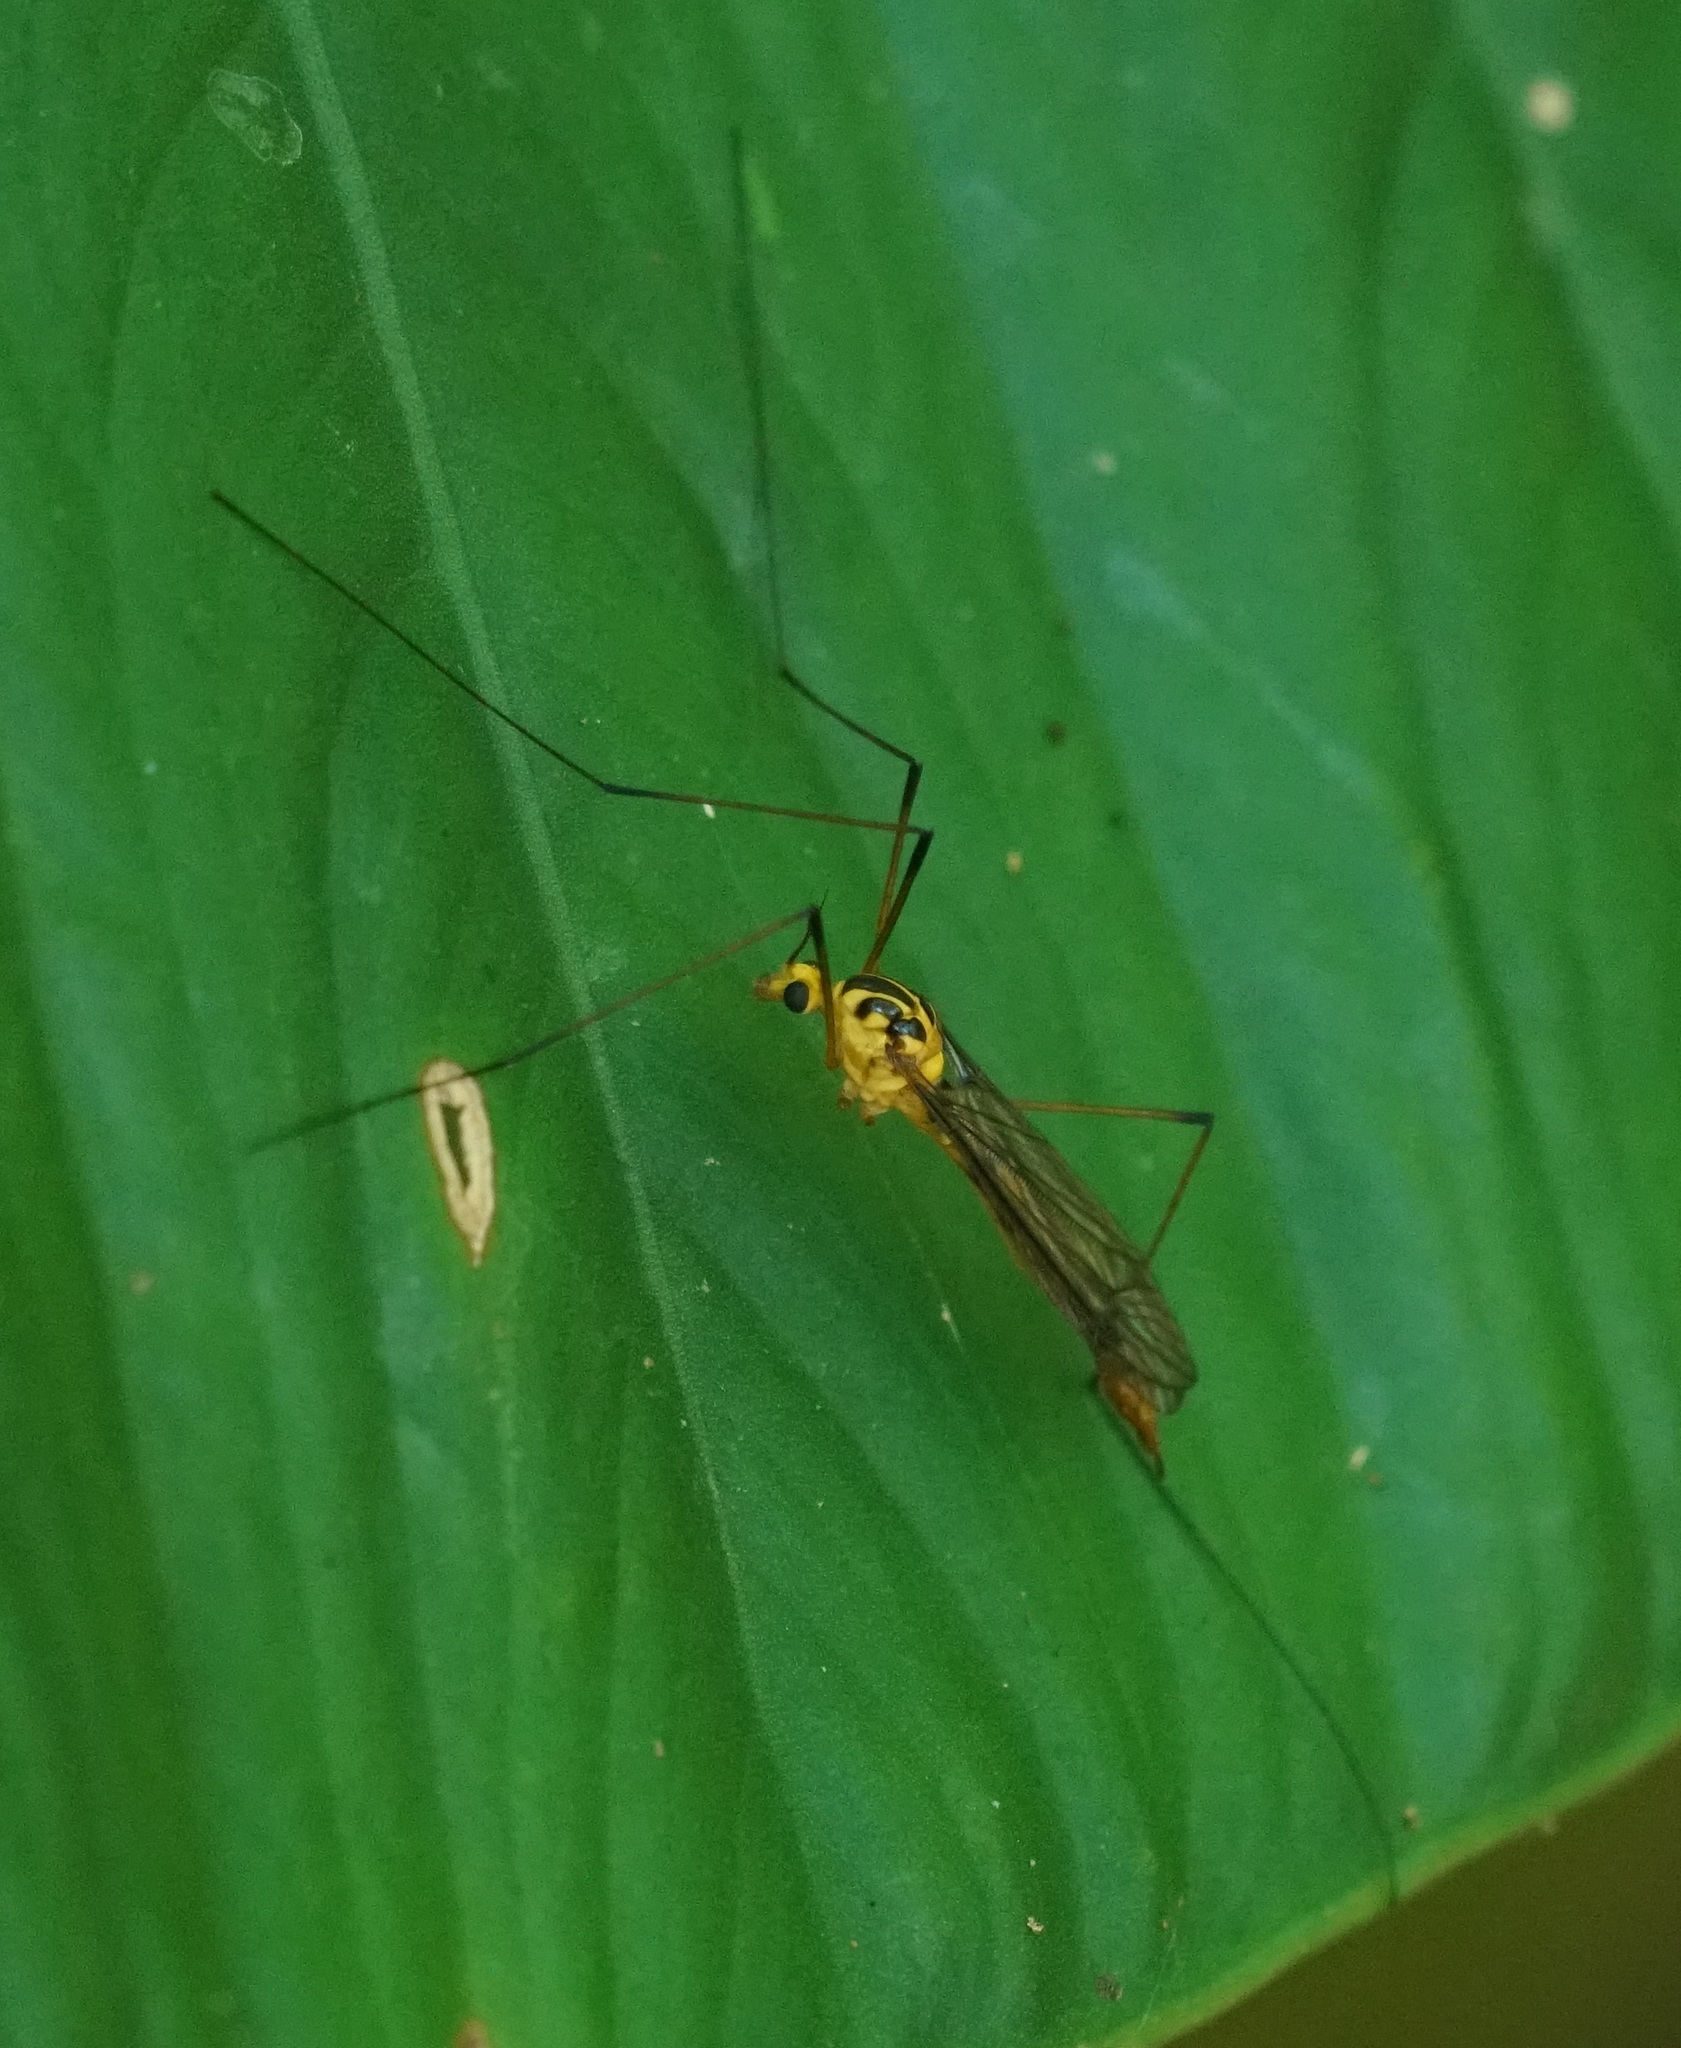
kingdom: Animalia
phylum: Arthropoda
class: Insecta
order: Diptera
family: Tipulidae
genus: Nephrotoma
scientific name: Nephrotoma australasiae
